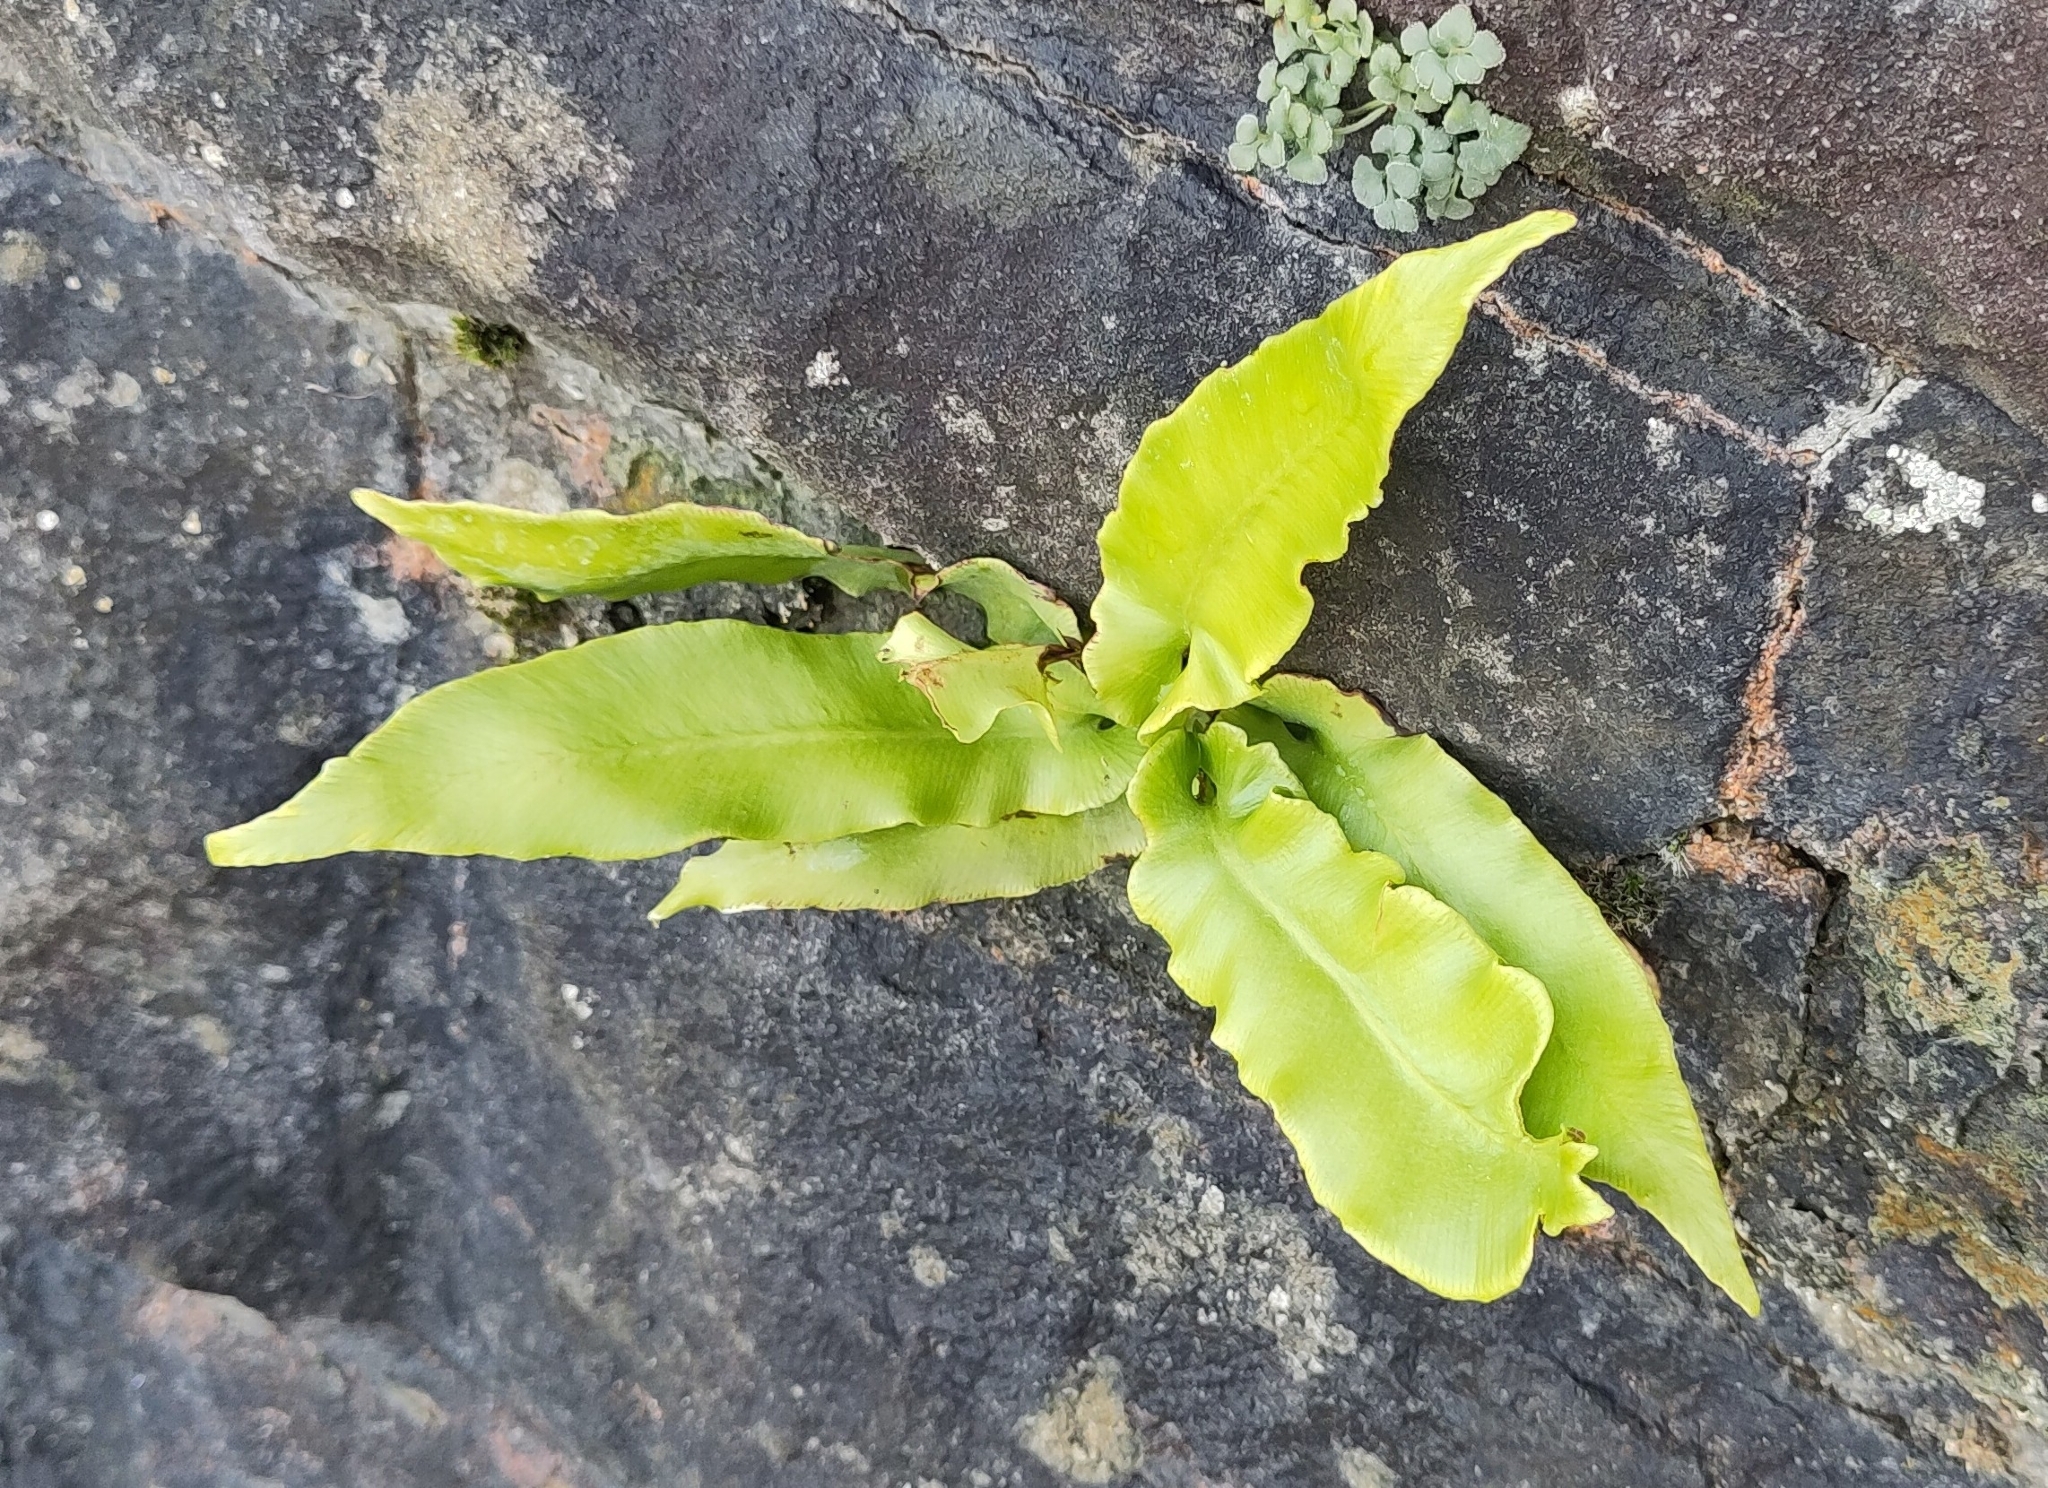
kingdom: Plantae
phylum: Tracheophyta
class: Polypodiopsida
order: Polypodiales
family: Aspleniaceae
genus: Asplenium
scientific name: Asplenium scolopendrium
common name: Hart's-tongue fern
